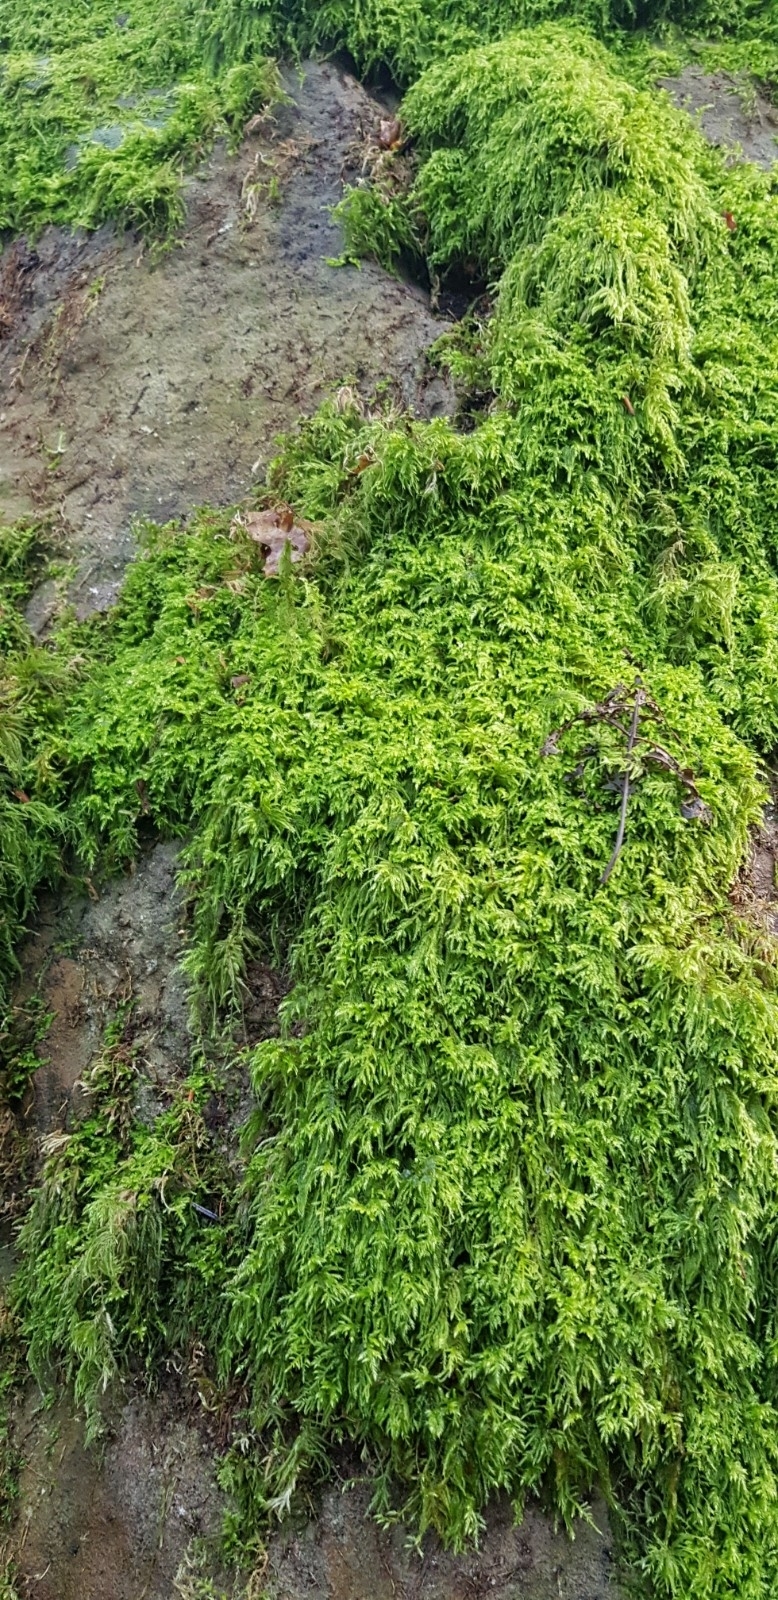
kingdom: Plantae
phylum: Bryophyta
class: Bryopsida
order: Hypnales
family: Lembophyllaceae
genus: Pseudisothecium
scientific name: Pseudisothecium myosuroides
